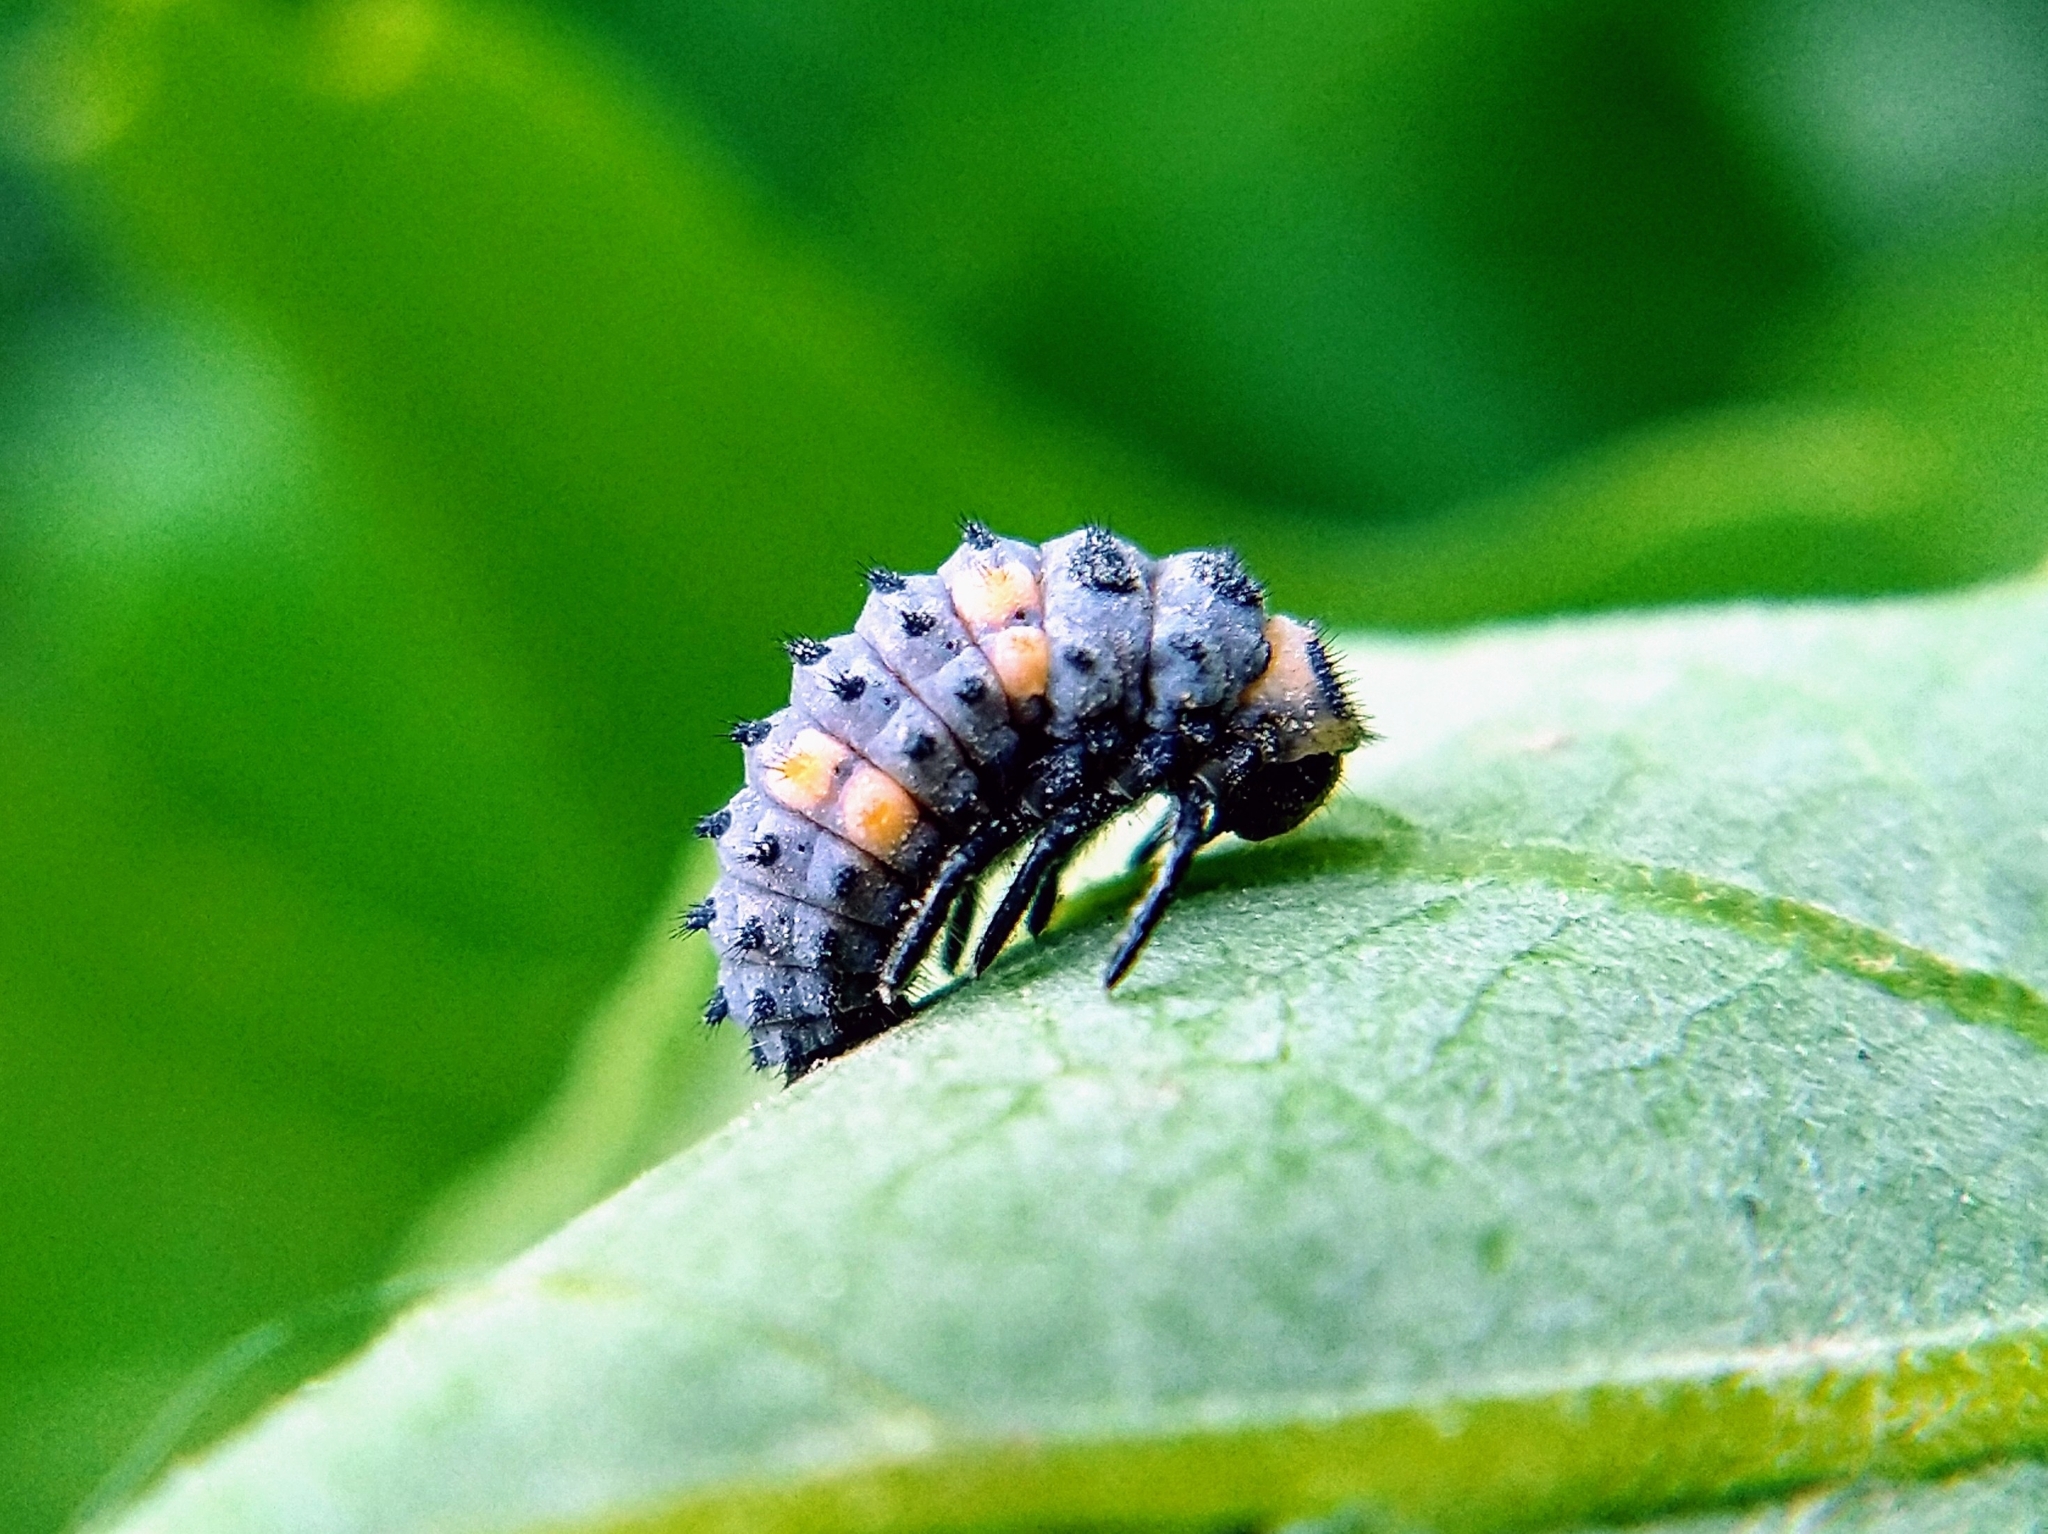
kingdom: Animalia
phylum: Arthropoda
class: Insecta
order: Coleoptera
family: Coccinellidae
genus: Coccinella
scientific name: Coccinella septempunctata
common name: Sevenspotted lady beetle
